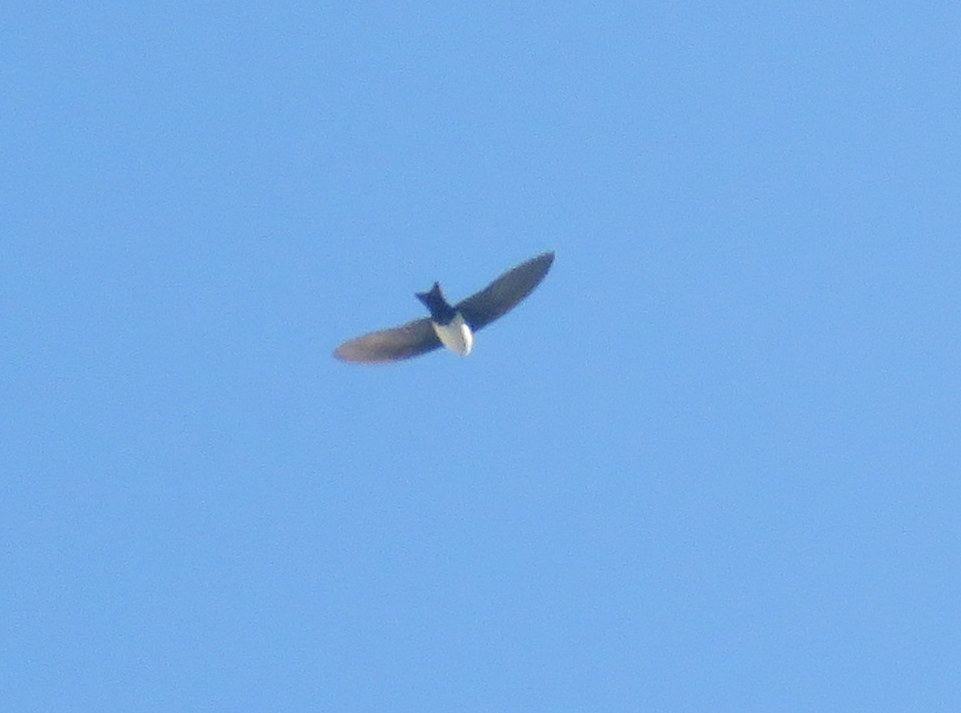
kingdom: Animalia
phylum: Chordata
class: Aves
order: Passeriformes
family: Hirundinidae
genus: Notiochelidon
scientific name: Notiochelidon cyanoleuca
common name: Blue-and-white swallow
